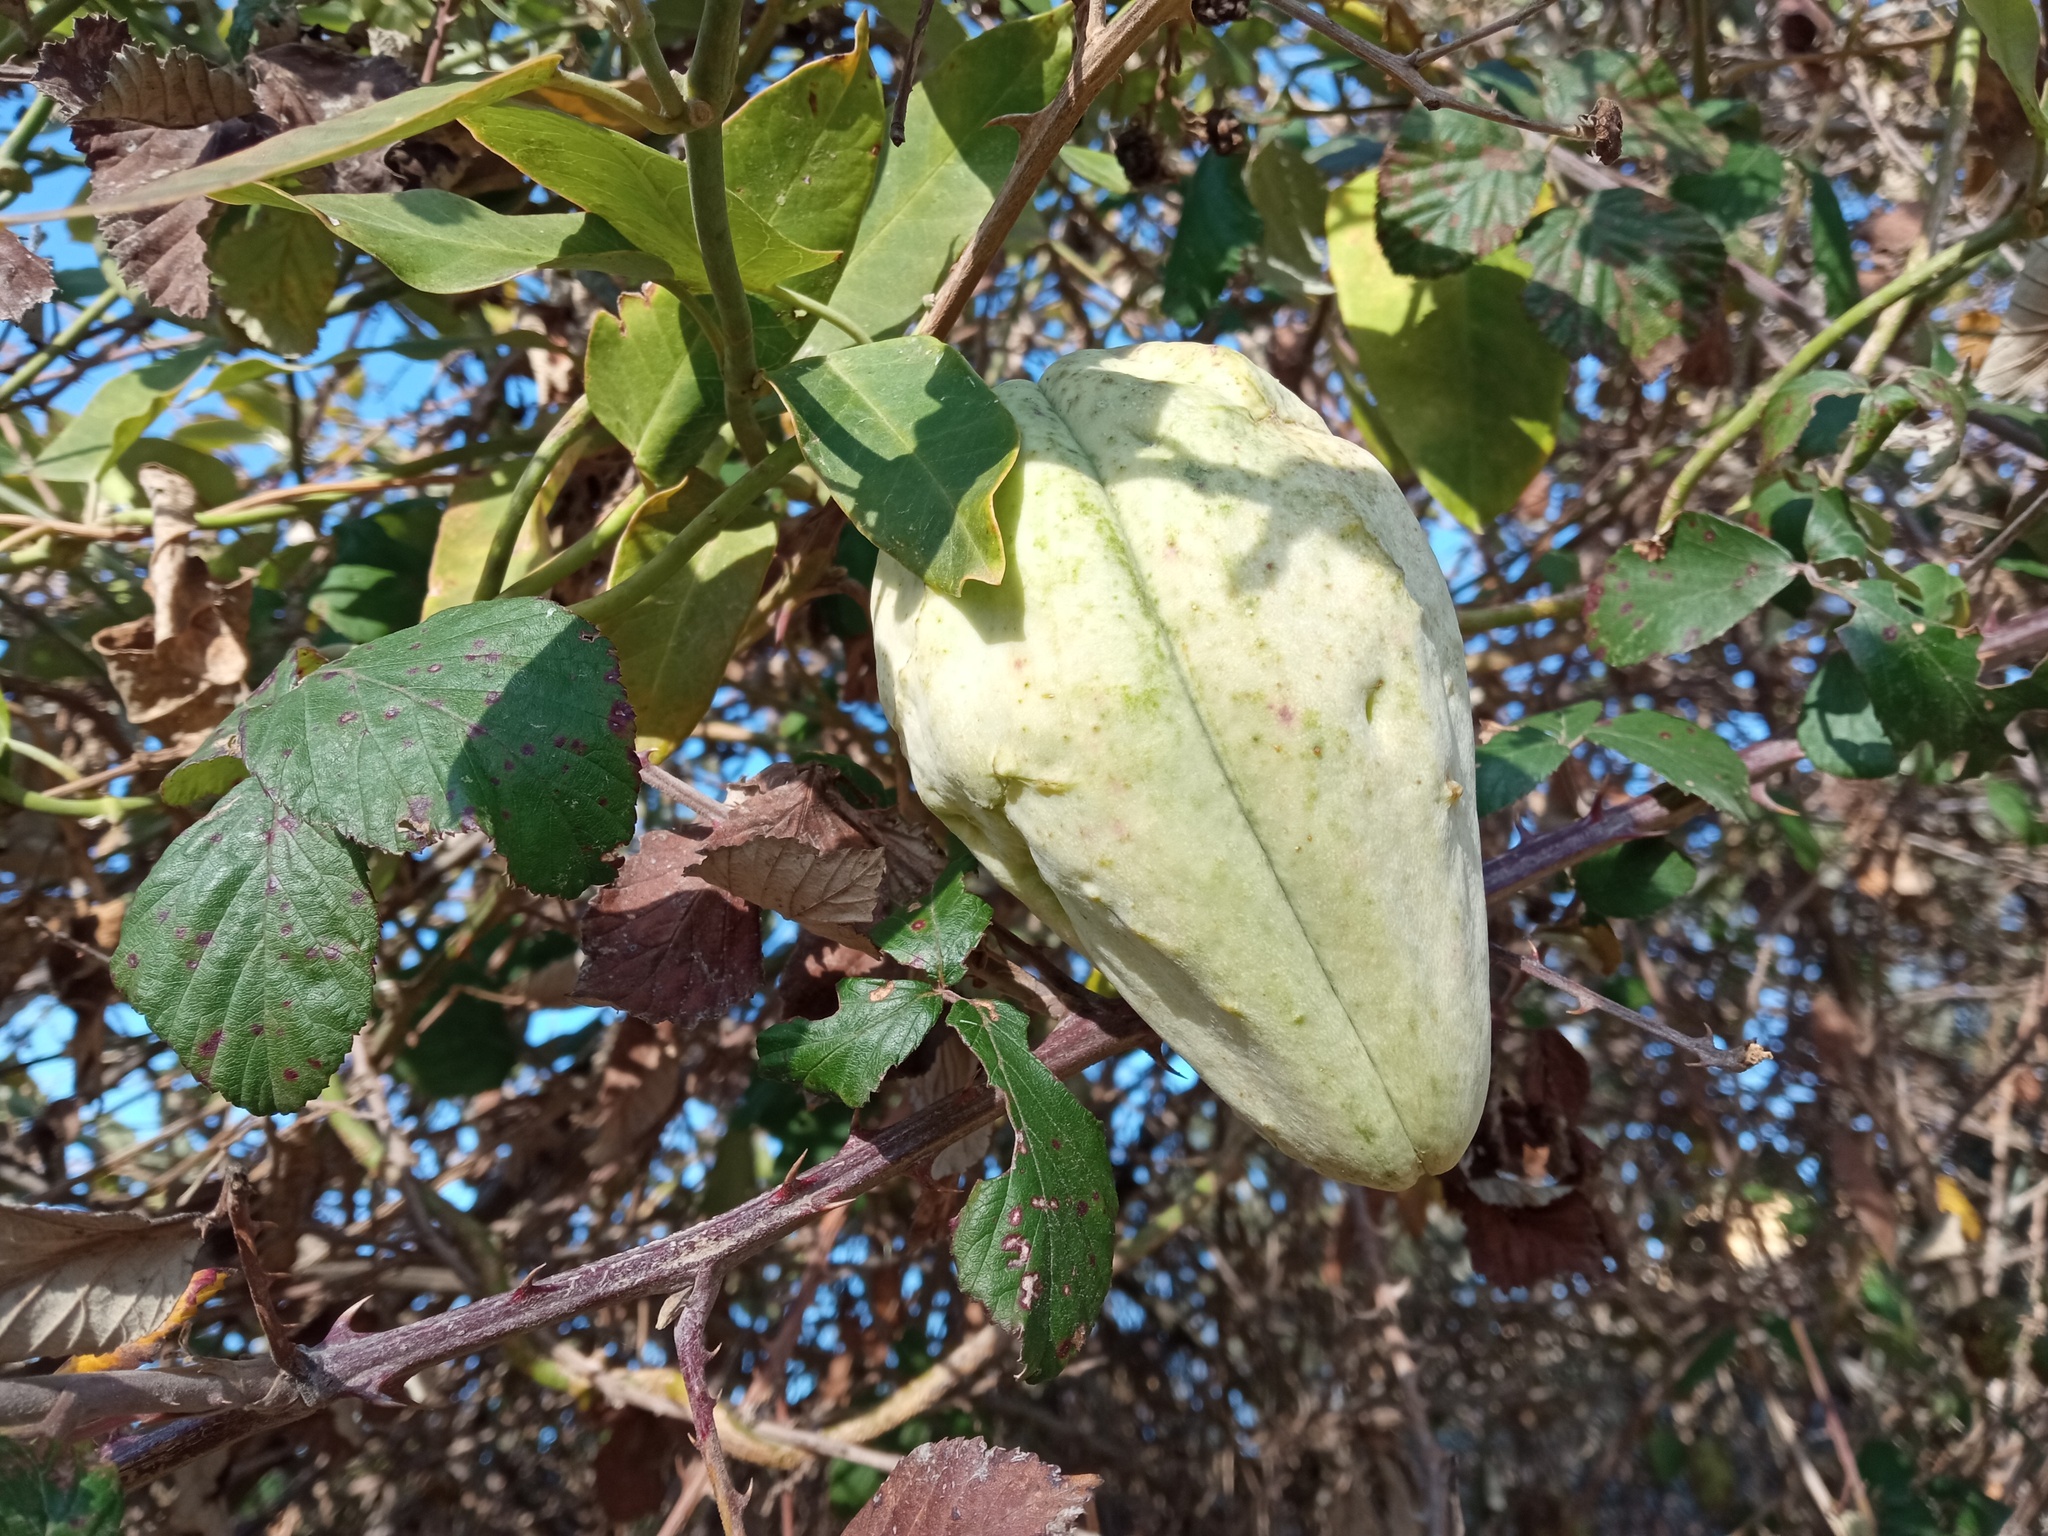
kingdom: Plantae
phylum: Tracheophyta
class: Magnoliopsida
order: Gentianales
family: Apocynaceae
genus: Araujia
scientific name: Araujia sericifera
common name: White bladderflower
